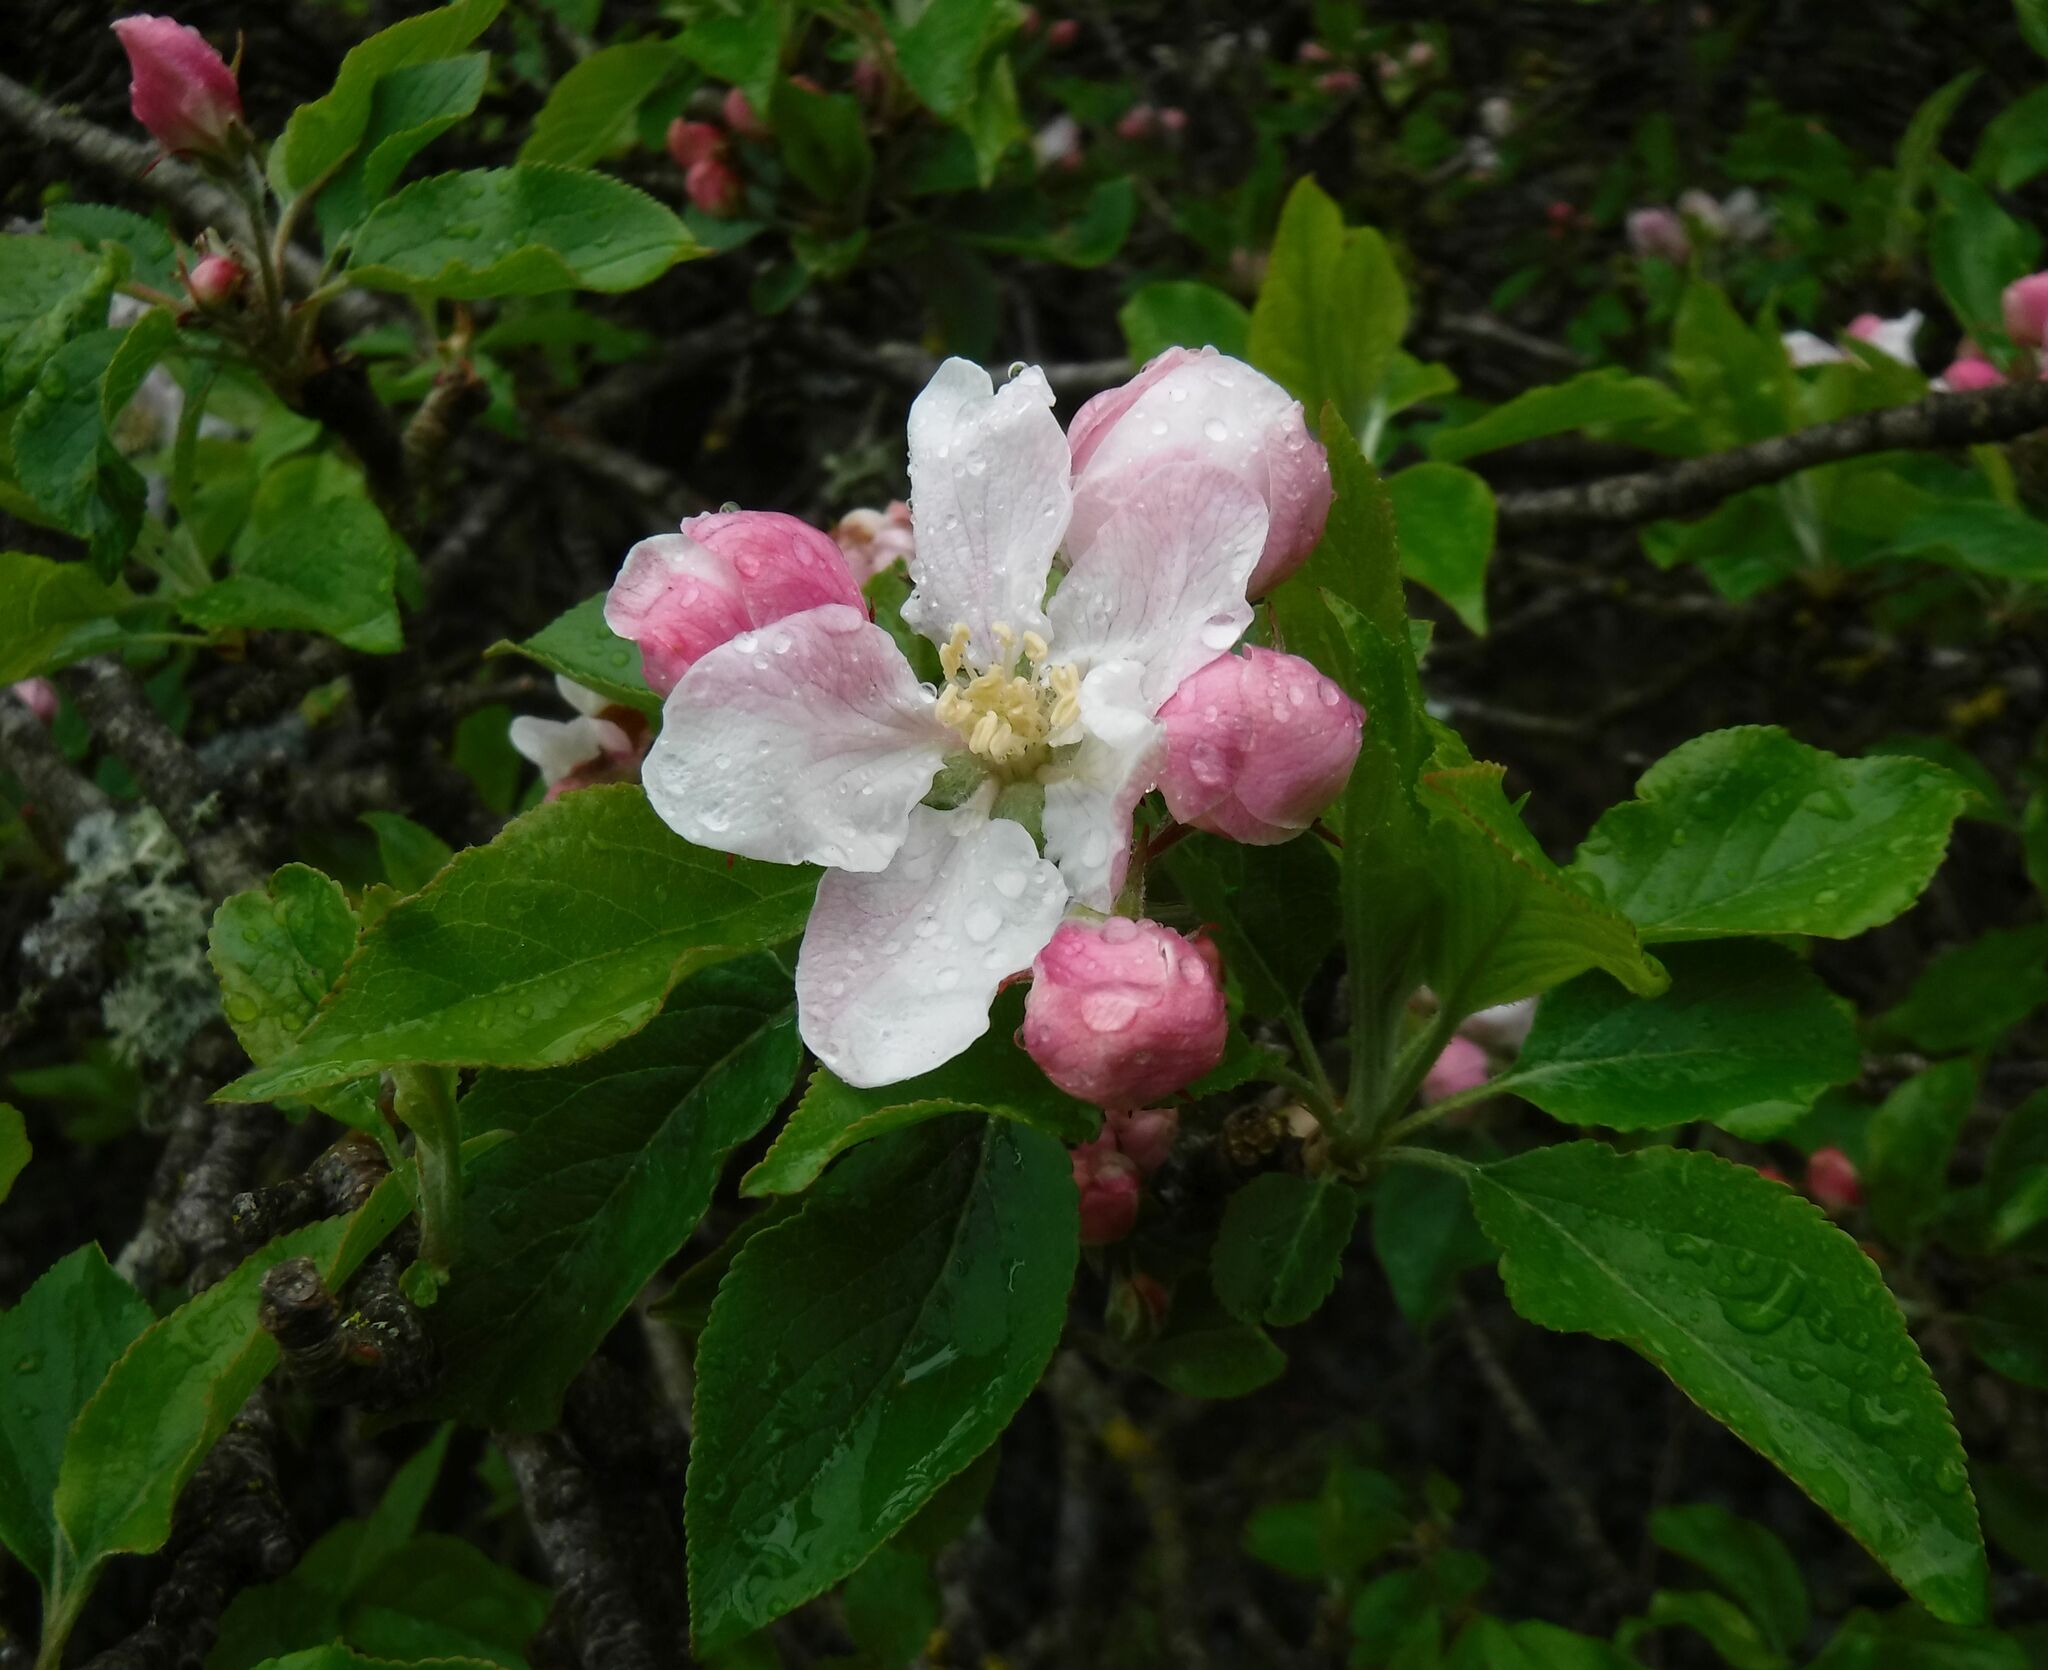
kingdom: Plantae
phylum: Tracheophyta
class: Magnoliopsida
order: Rosales
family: Rosaceae
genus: Malus
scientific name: Malus domestica
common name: Apple
